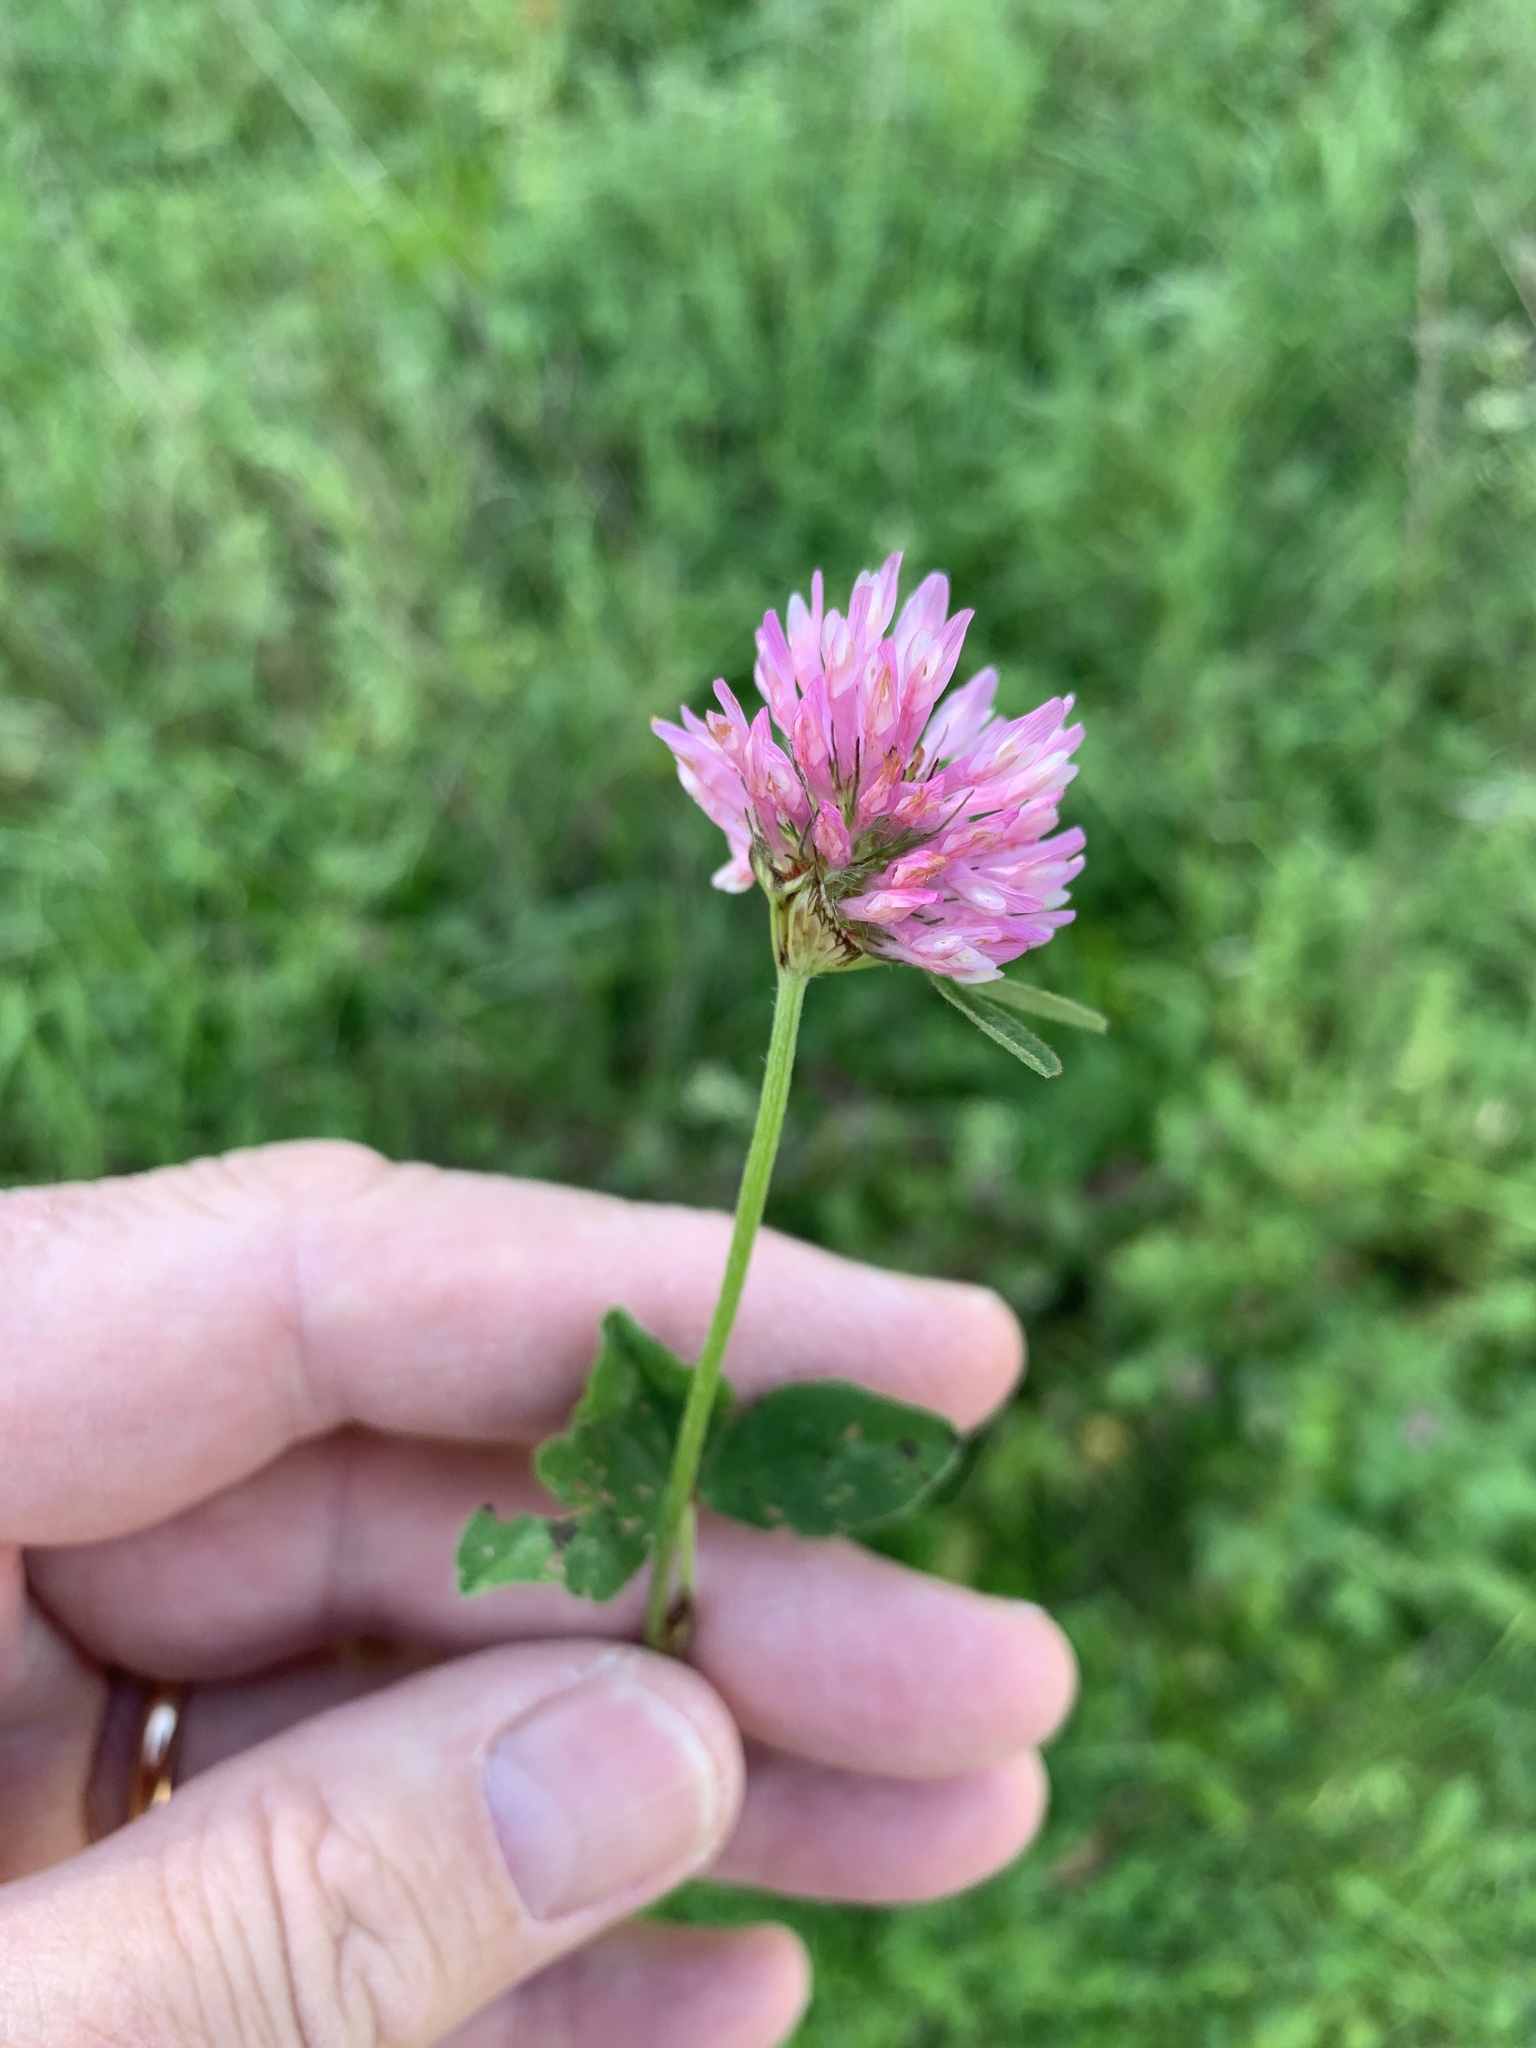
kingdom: Plantae
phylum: Tracheophyta
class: Magnoliopsida
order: Fabales
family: Fabaceae
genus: Trifolium
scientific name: Trifolium pratense
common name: Red clover
